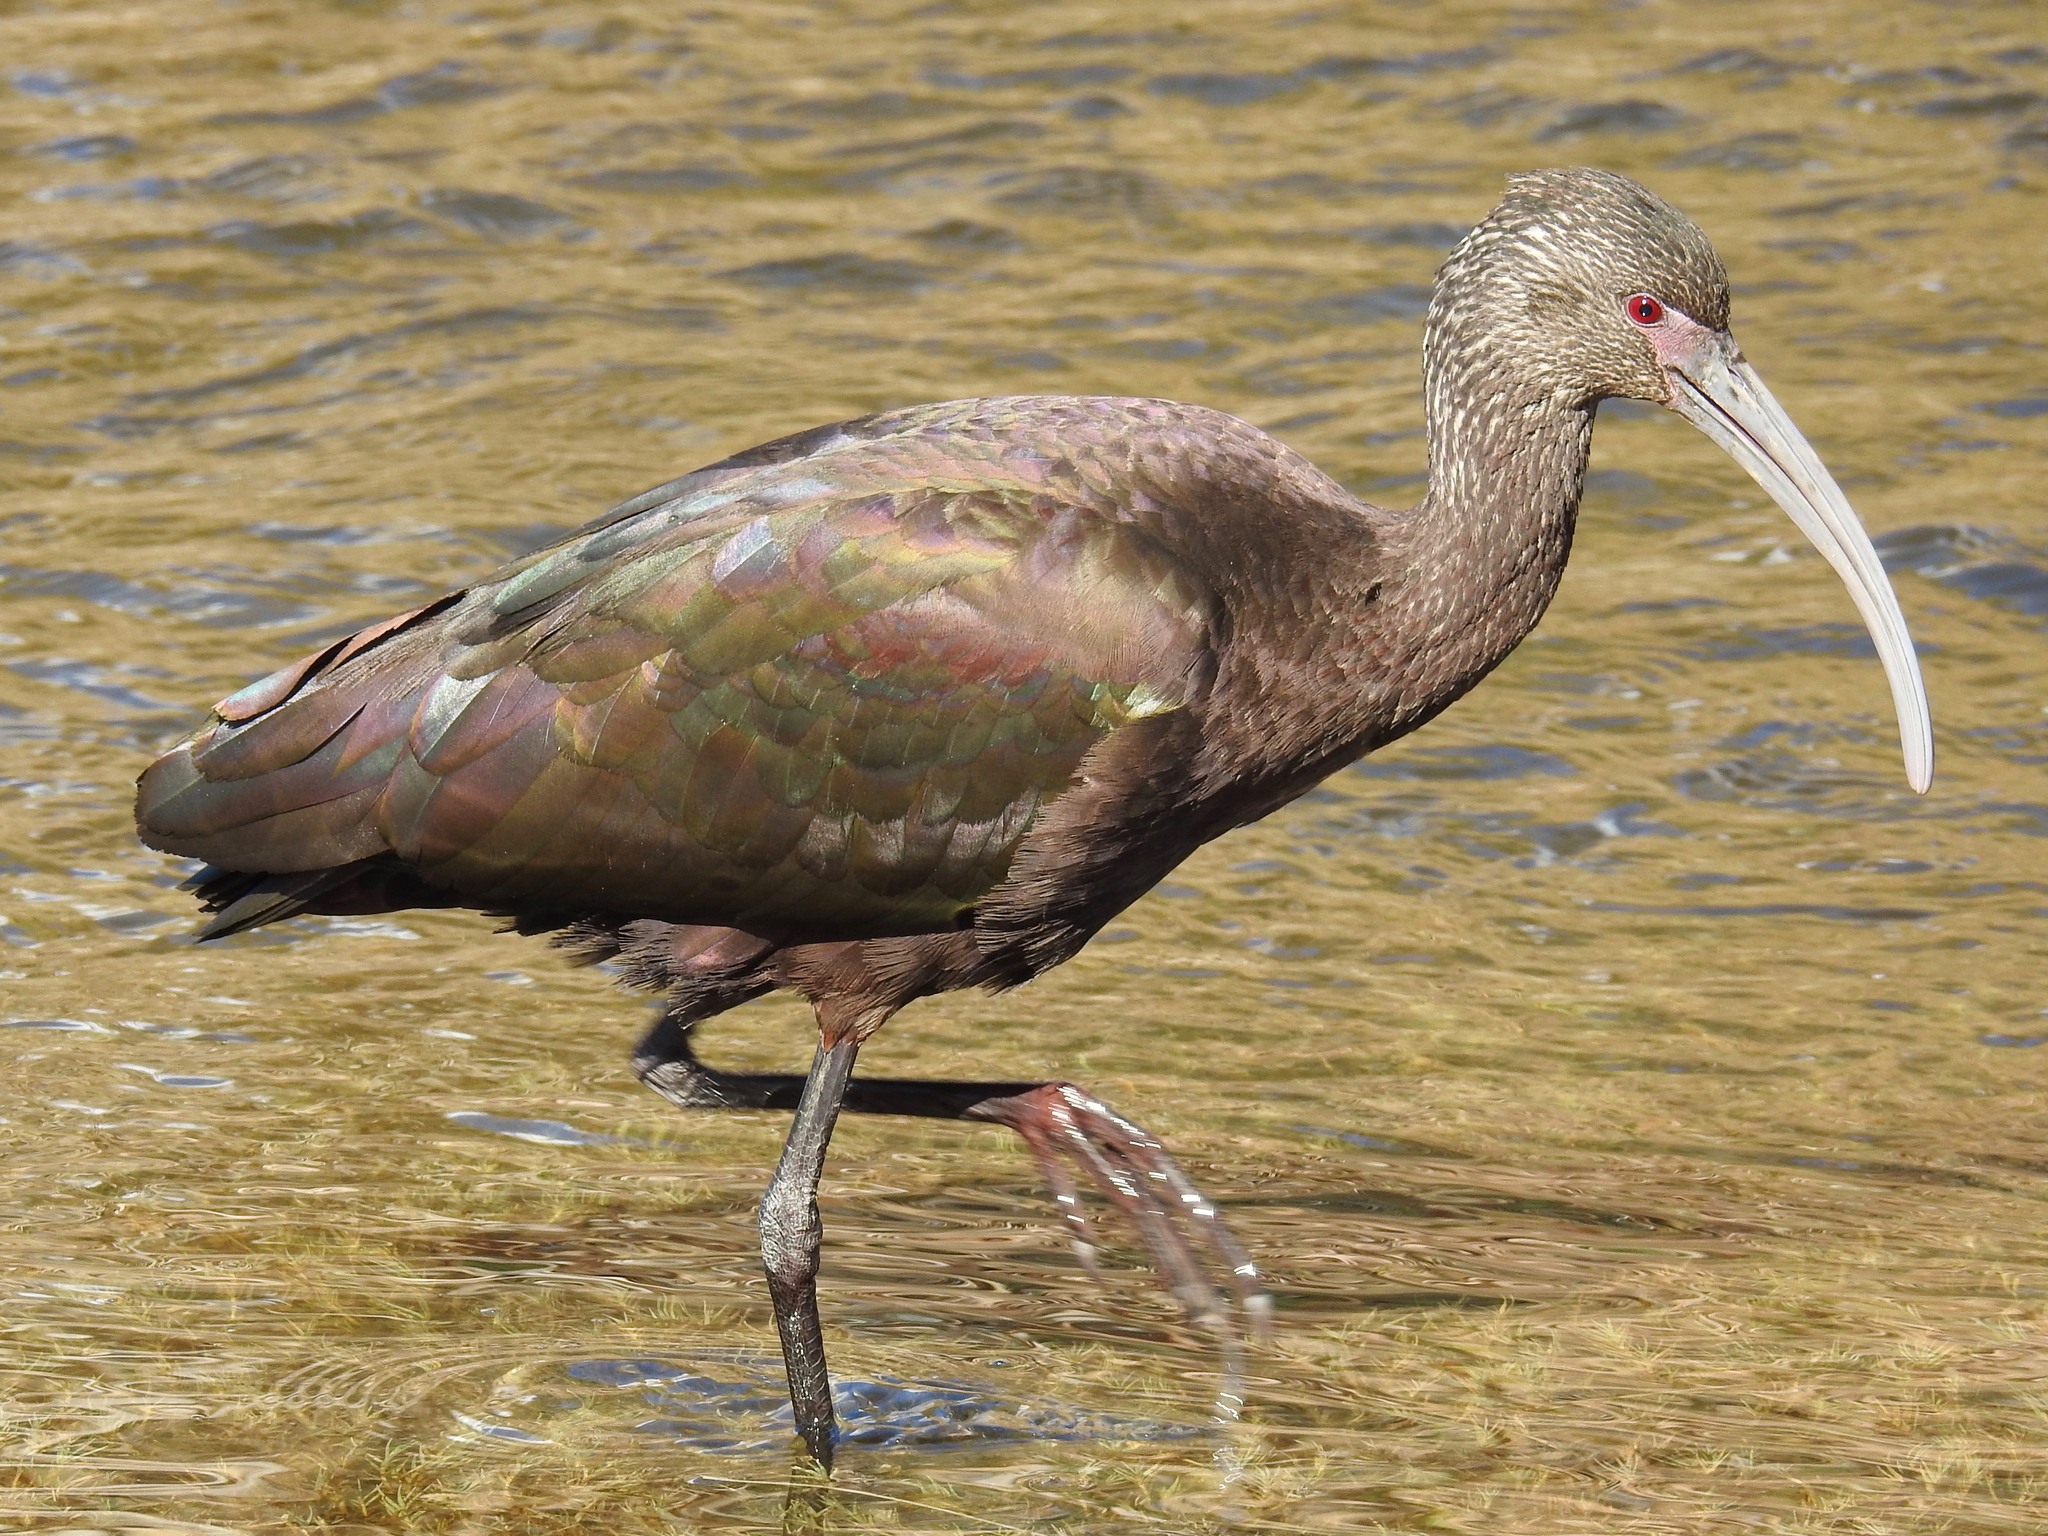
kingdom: Animalia
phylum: Chordata
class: Aves
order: Pelecaniformes
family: Threskiornithidae
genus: Plegadis
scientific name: Plegadis chihi
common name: White-faced ibis
